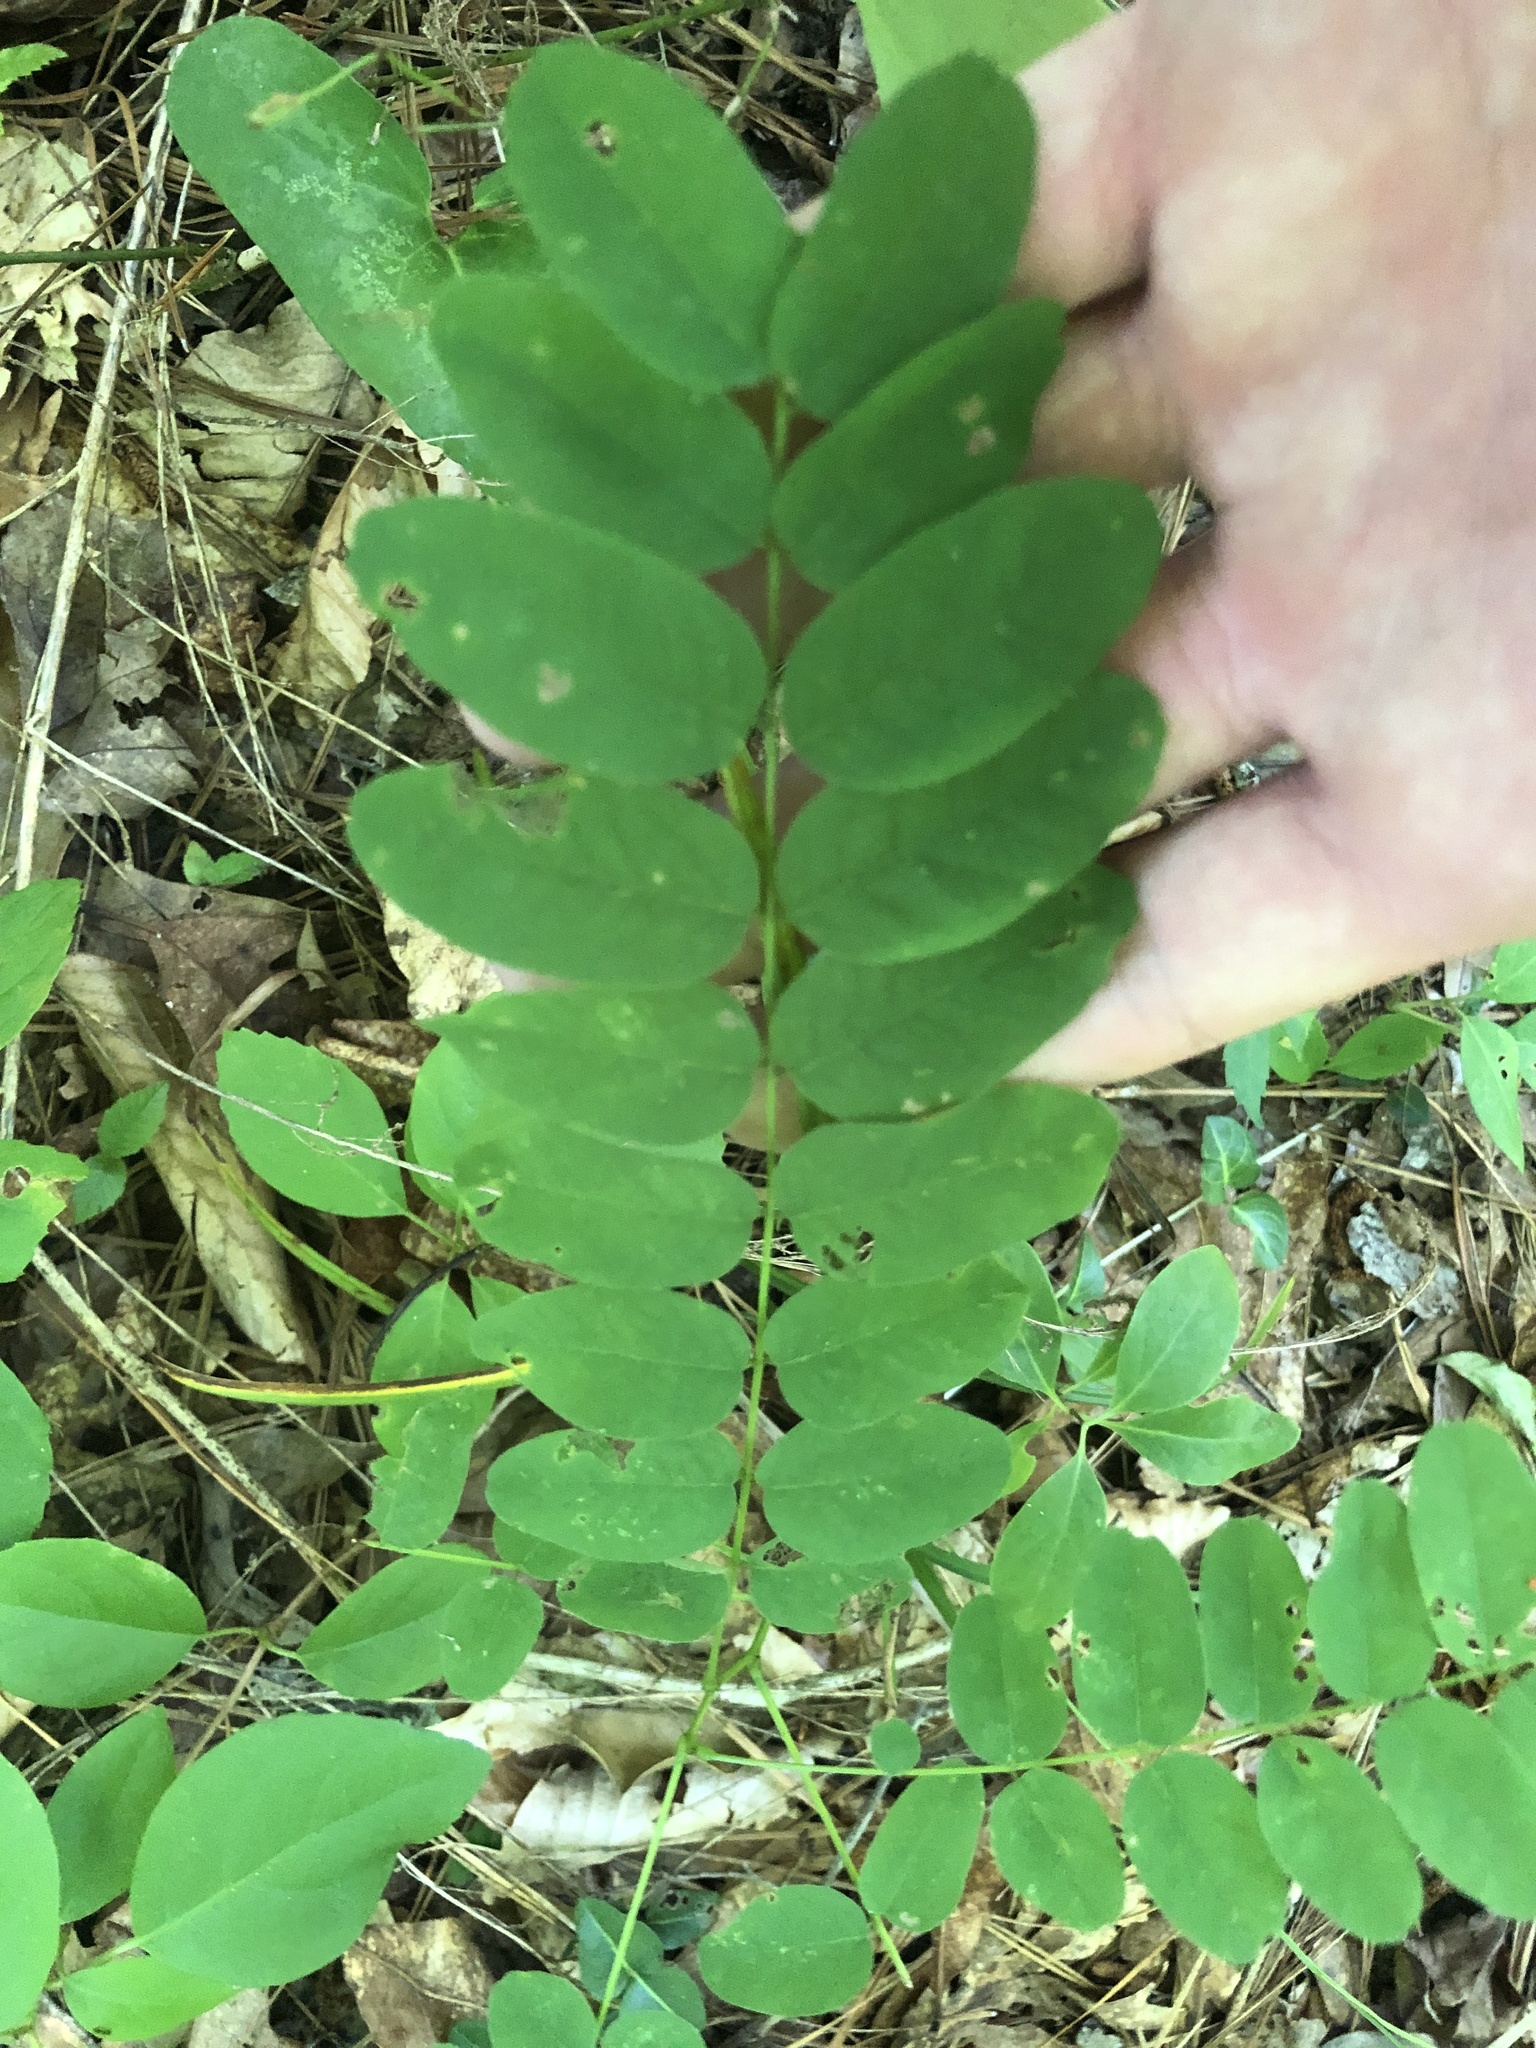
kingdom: Plantae
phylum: Tracheophyta
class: Magnoliopsida
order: Fabales
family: Fabaceae
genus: Amorpha
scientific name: Amorpha fruticosa
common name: False indigo
